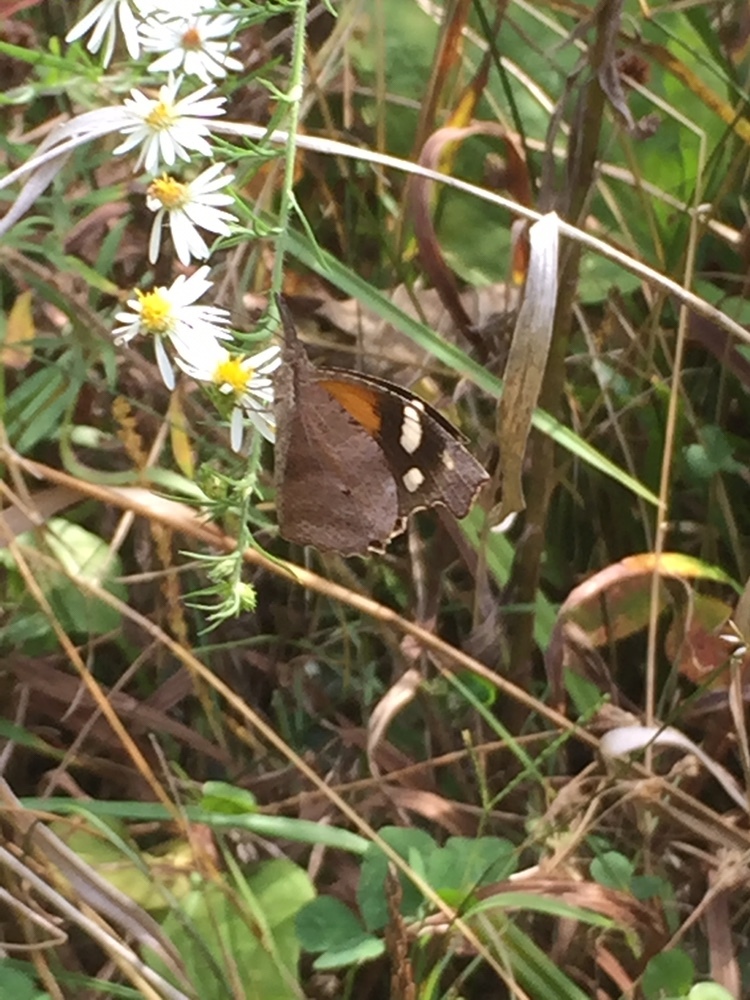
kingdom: Animalia
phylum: Arthropoda
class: Insecta
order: Lepidoptera
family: Nymphalidae
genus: Libytheana
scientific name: Libytheana carinenta
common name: American snout
